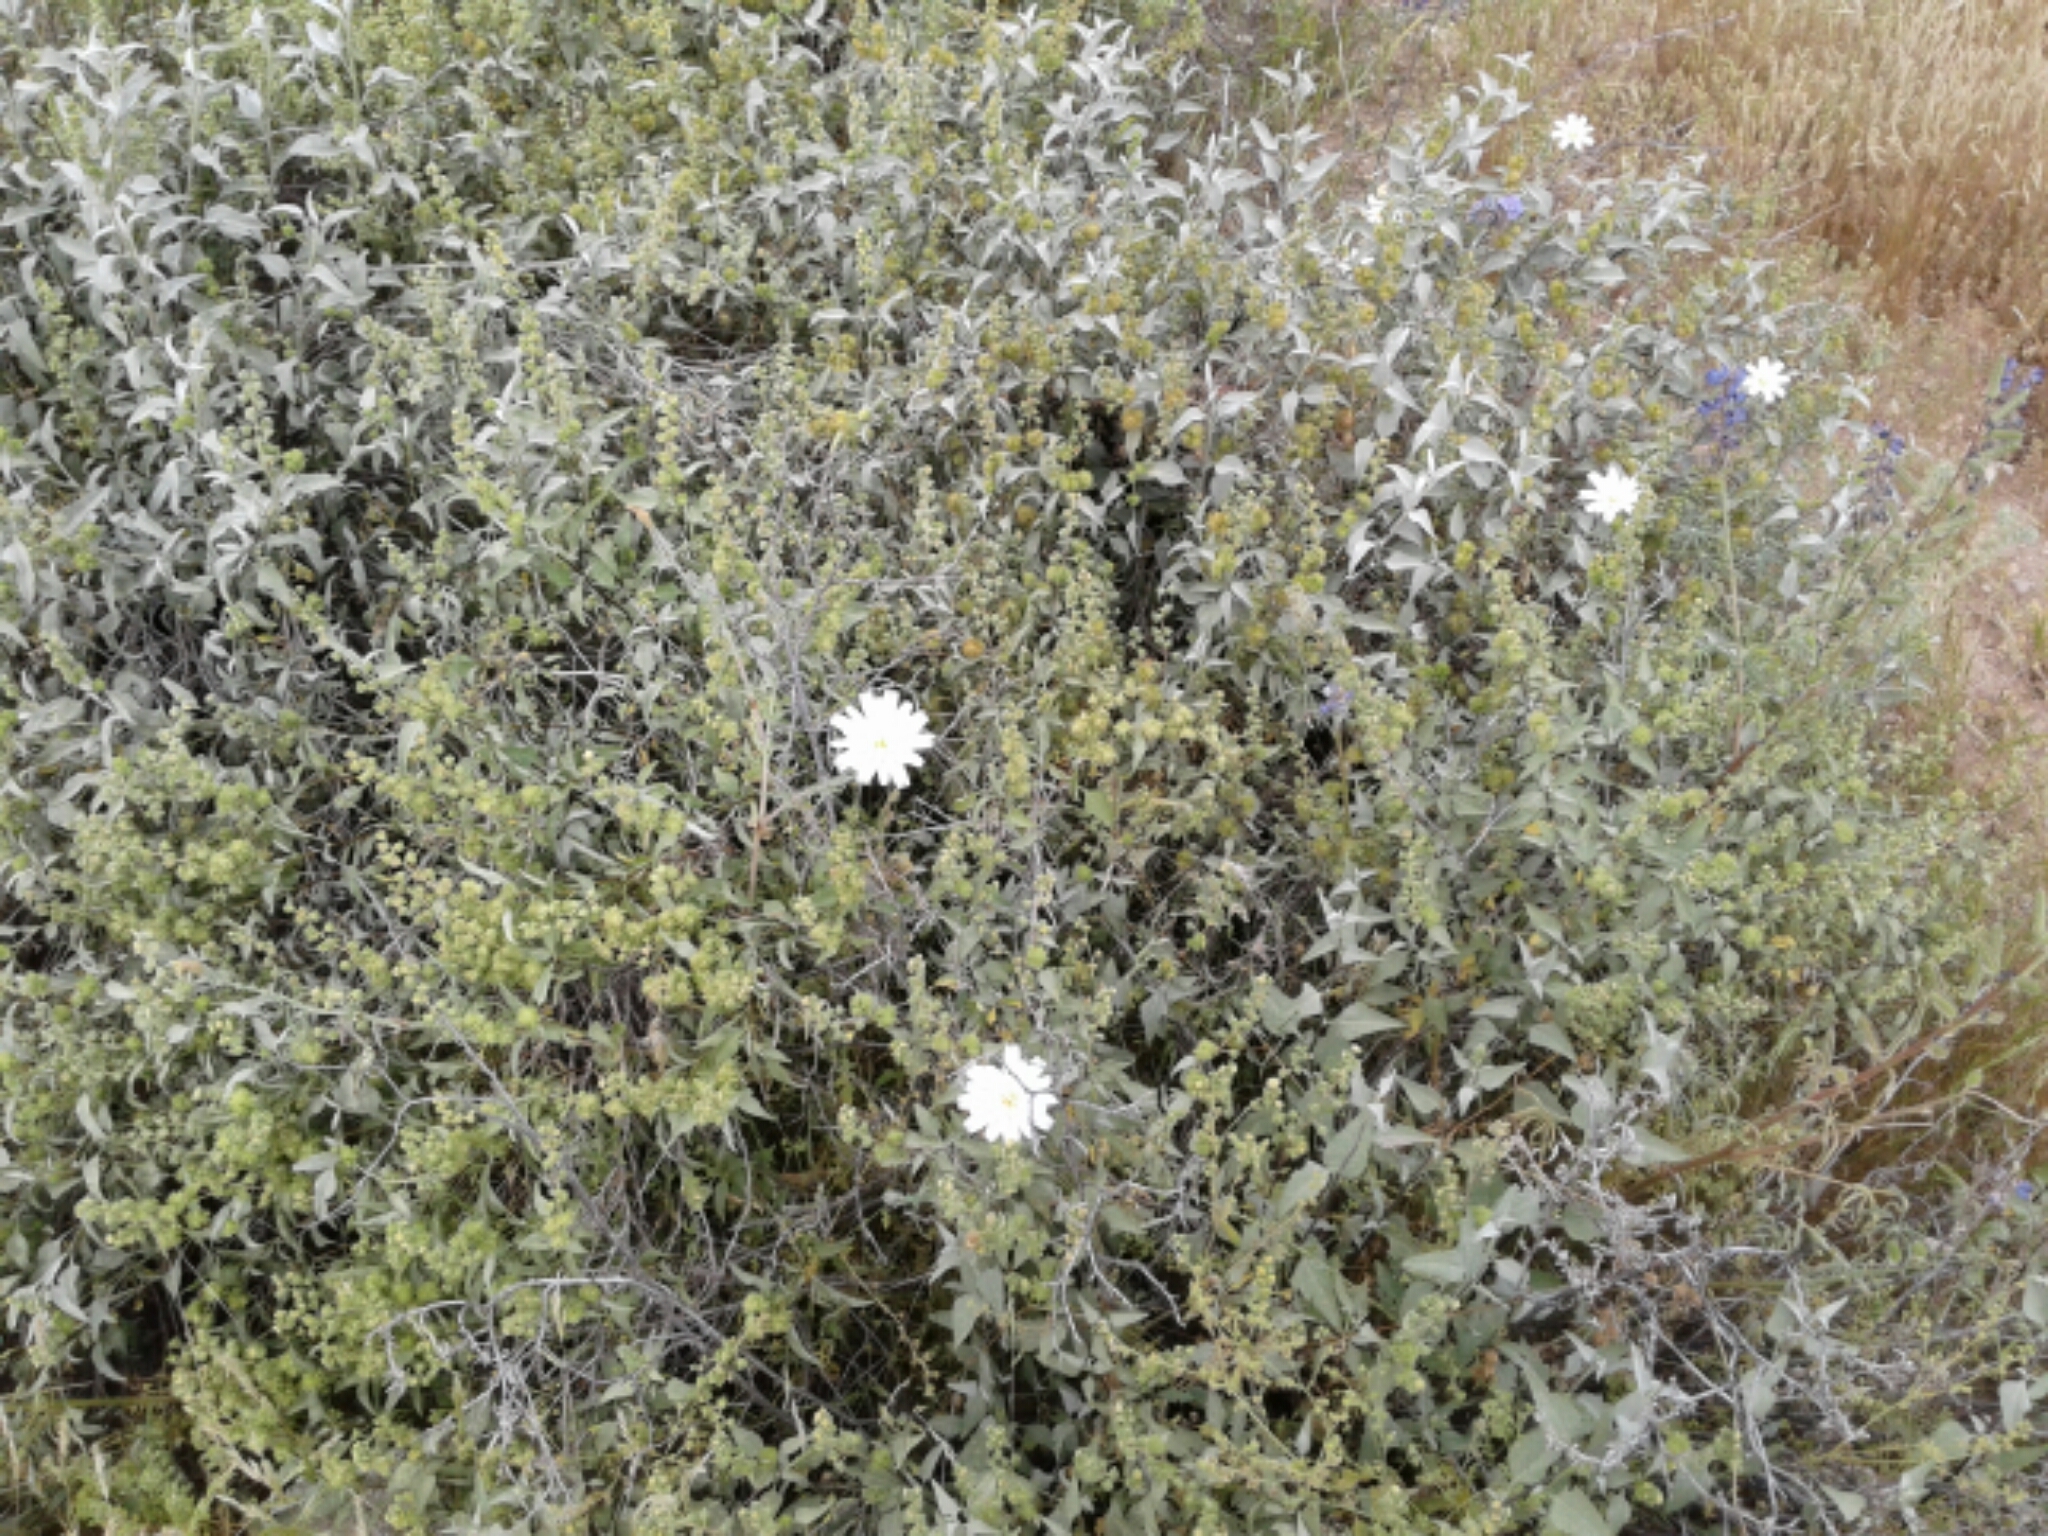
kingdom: Plantae
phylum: Tracheophyta
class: Magnoliopsida
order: Asterales
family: Asteraceae
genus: Rafinesquia
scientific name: Rafinesquia neomexicana
